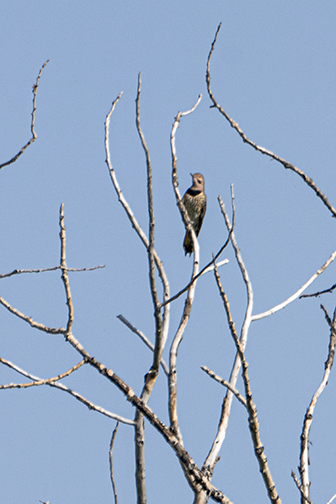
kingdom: Animalia
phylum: Chordata
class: Aves
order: Piciformes
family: Picidae
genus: Colaptes
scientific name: Colaptes auratus
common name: Northern flicker
